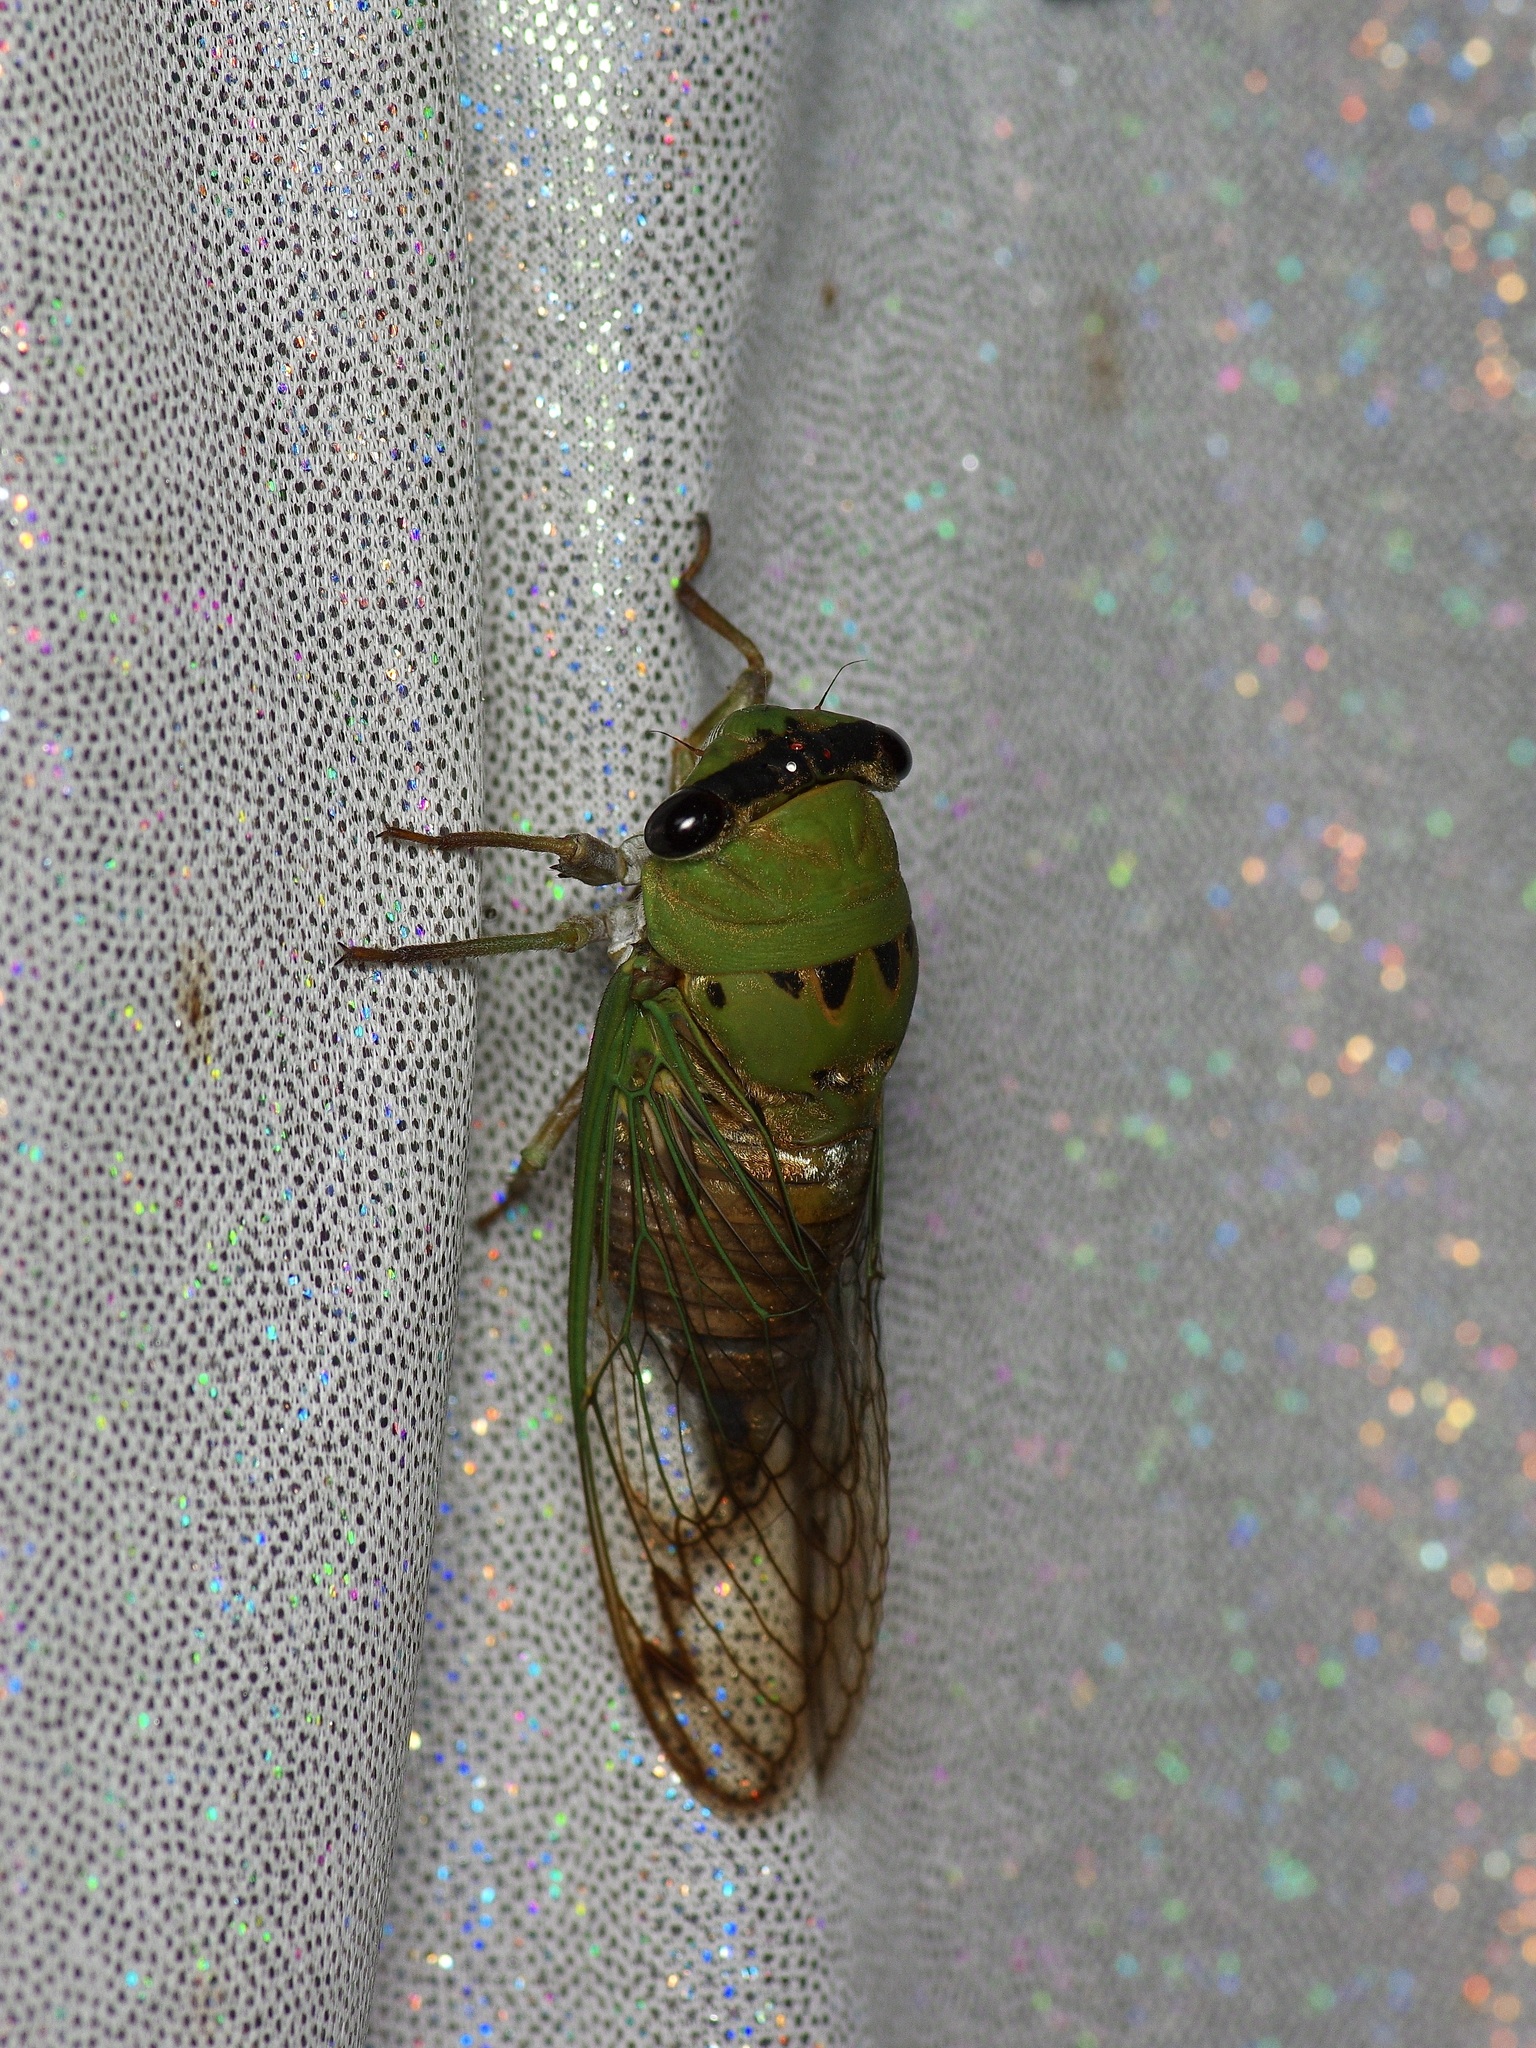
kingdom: Animalia
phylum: Arthropoda
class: Insecta
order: Hemiptera
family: Cicadidae
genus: Neotibicen
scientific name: Neotibicen superbus
